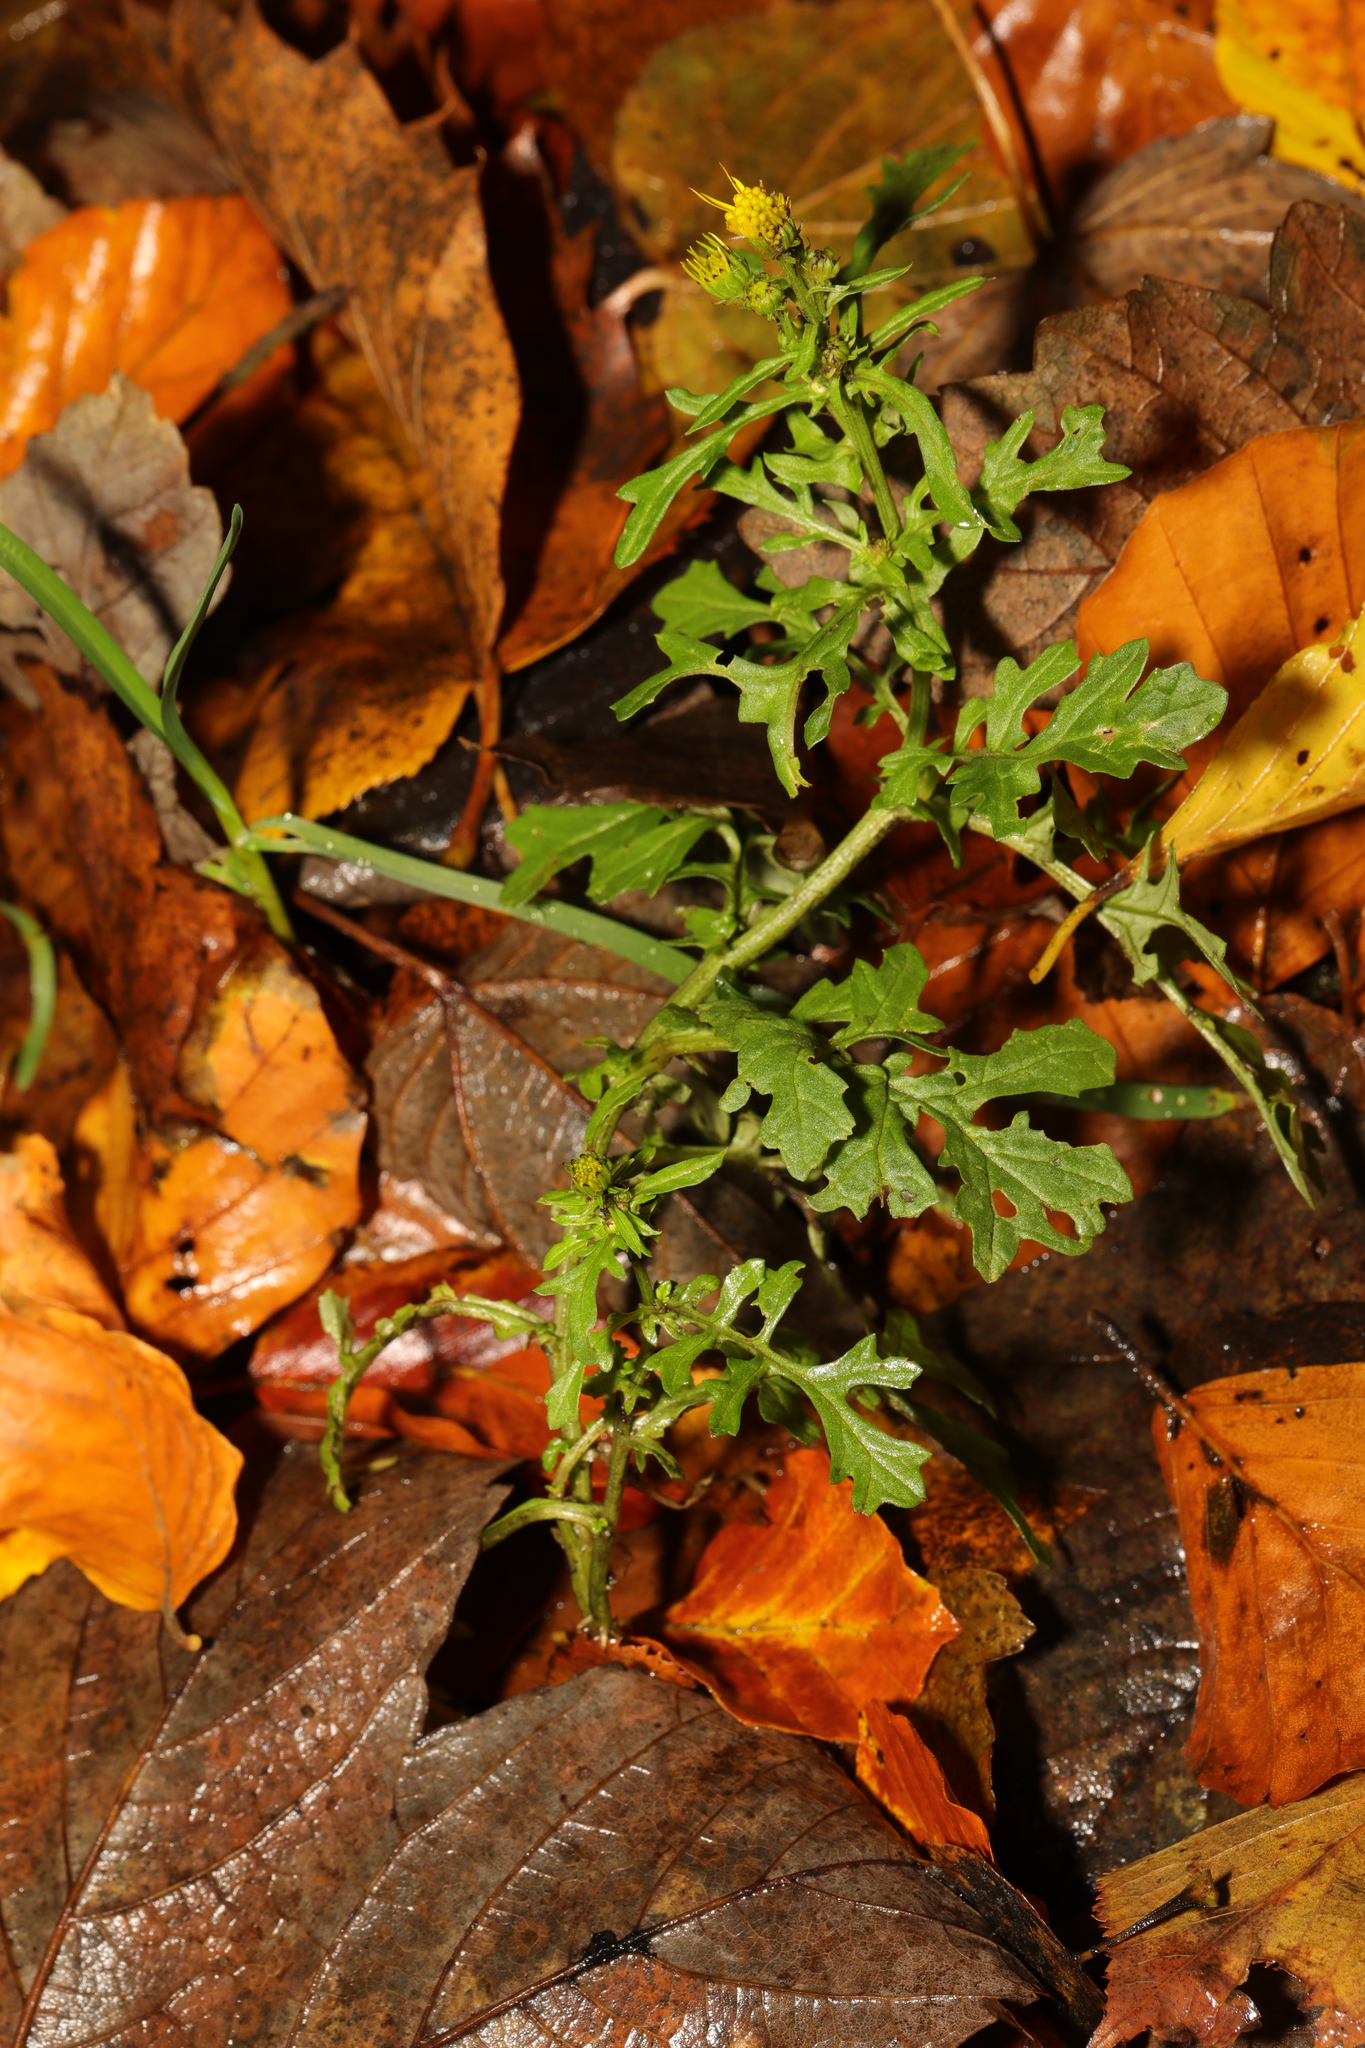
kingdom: Plantae
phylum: Tracheophyta
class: Magnoliopsida
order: Asterales
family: Asteraceae
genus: Jacobaea
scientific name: Jacobaea vulgaris
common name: Stinking willie
